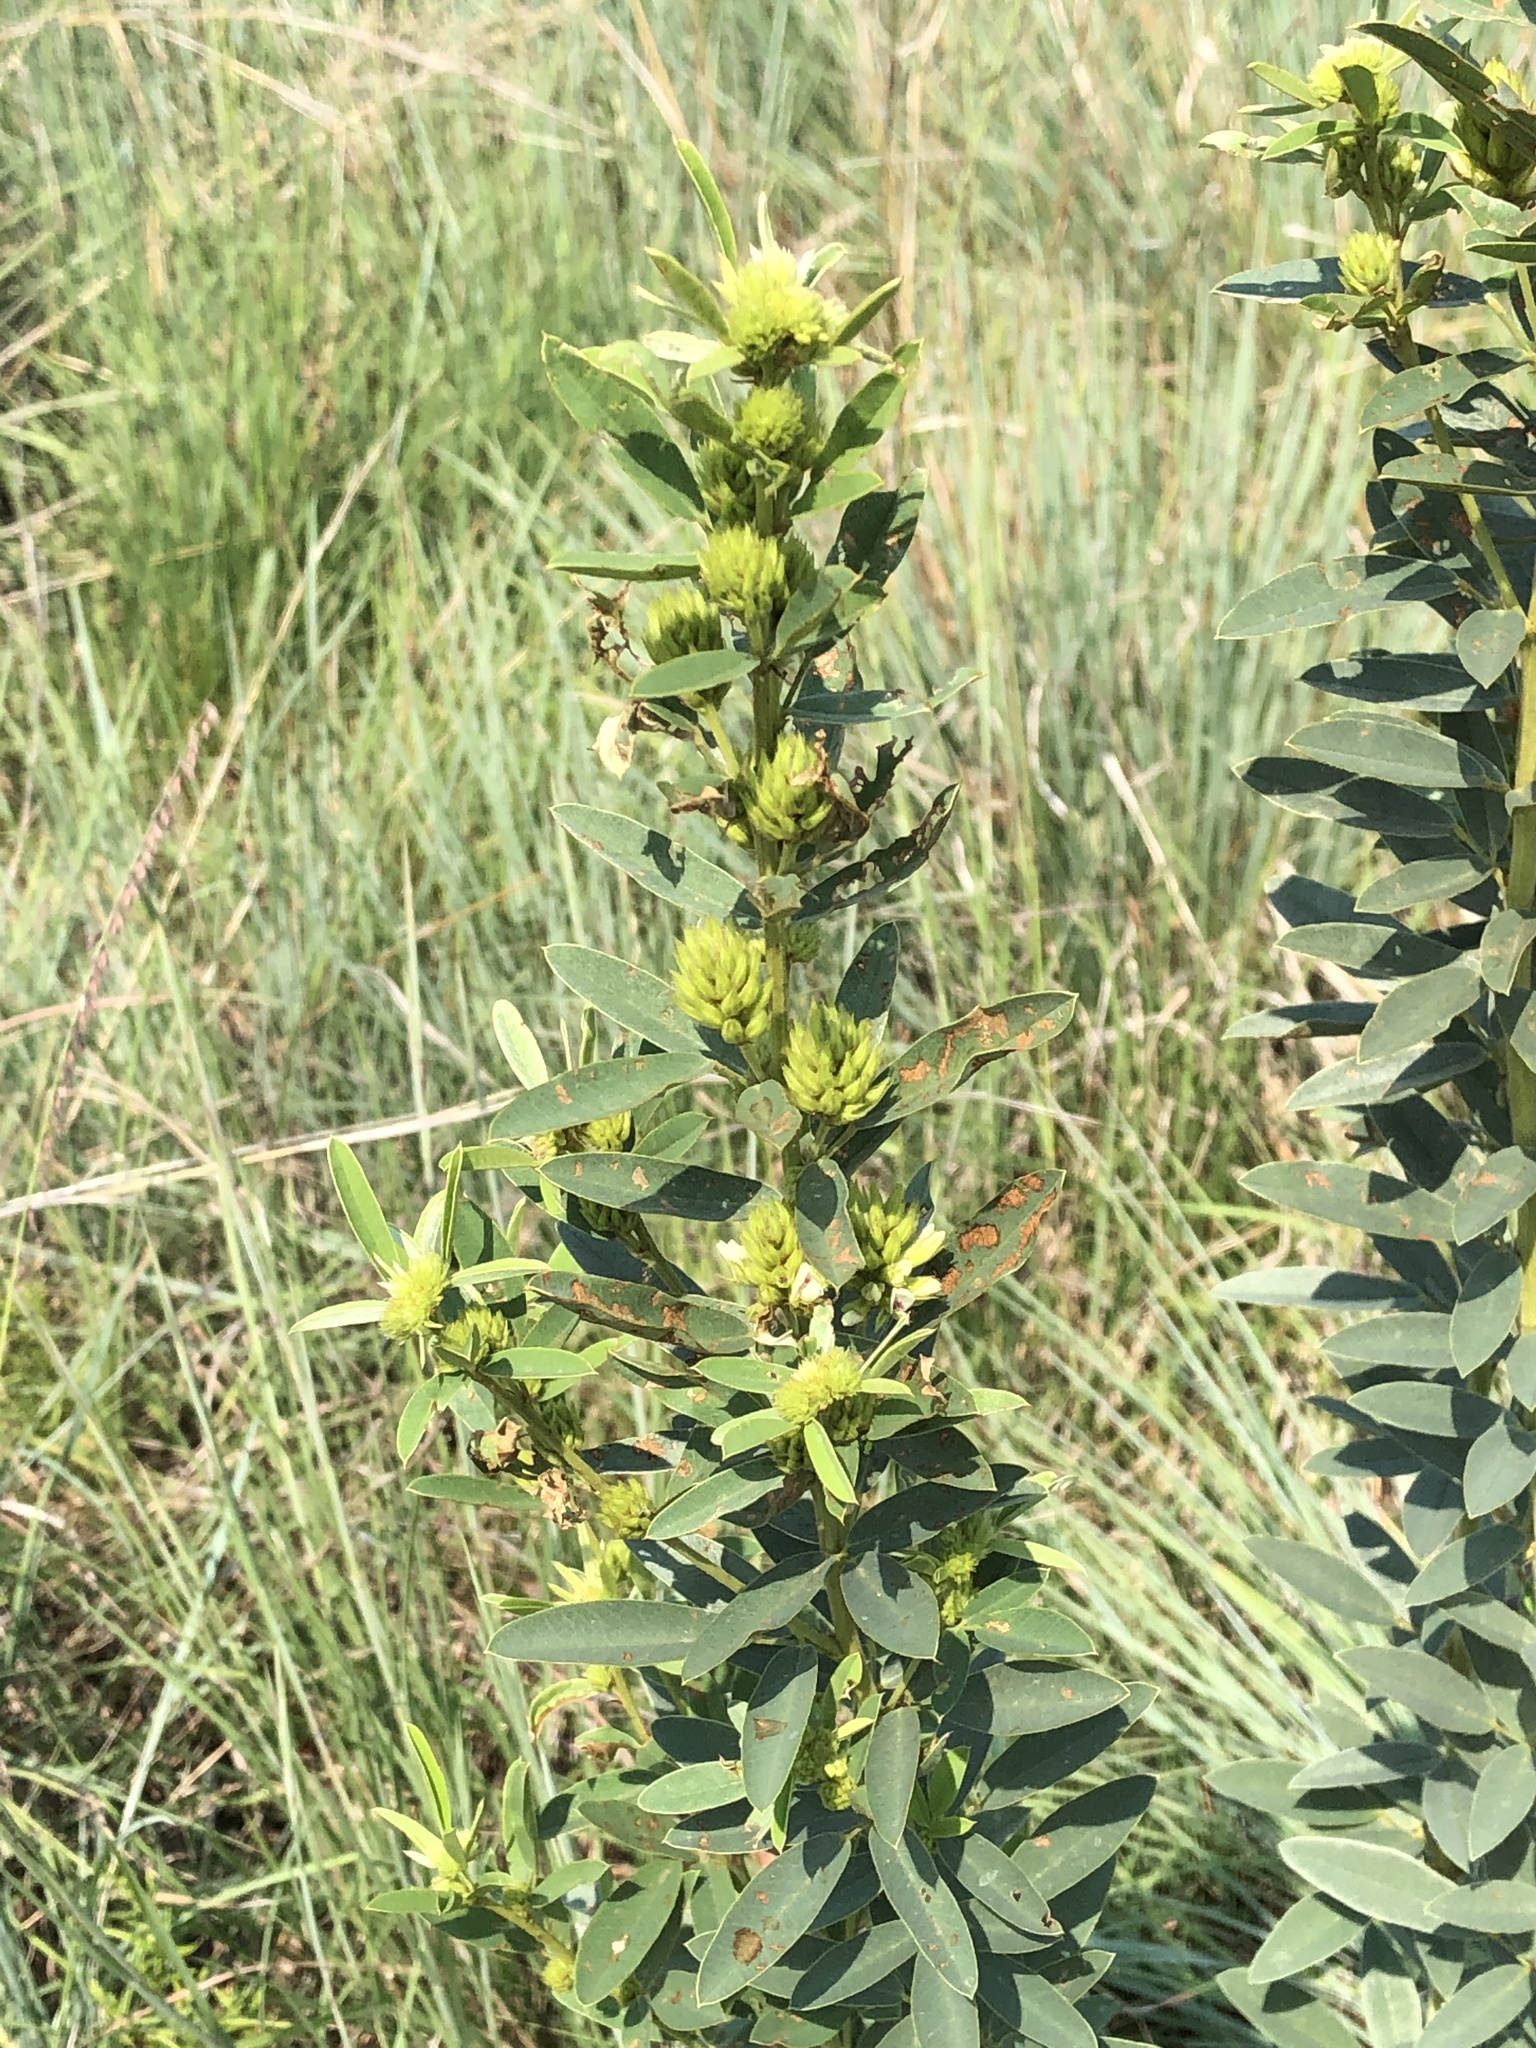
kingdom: Plantae
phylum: Tracheophyta
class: Magnoliopsida
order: Fabales
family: Fabaceae
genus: Lespedeza
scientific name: Lespedeza capitata
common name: Dusty clover
